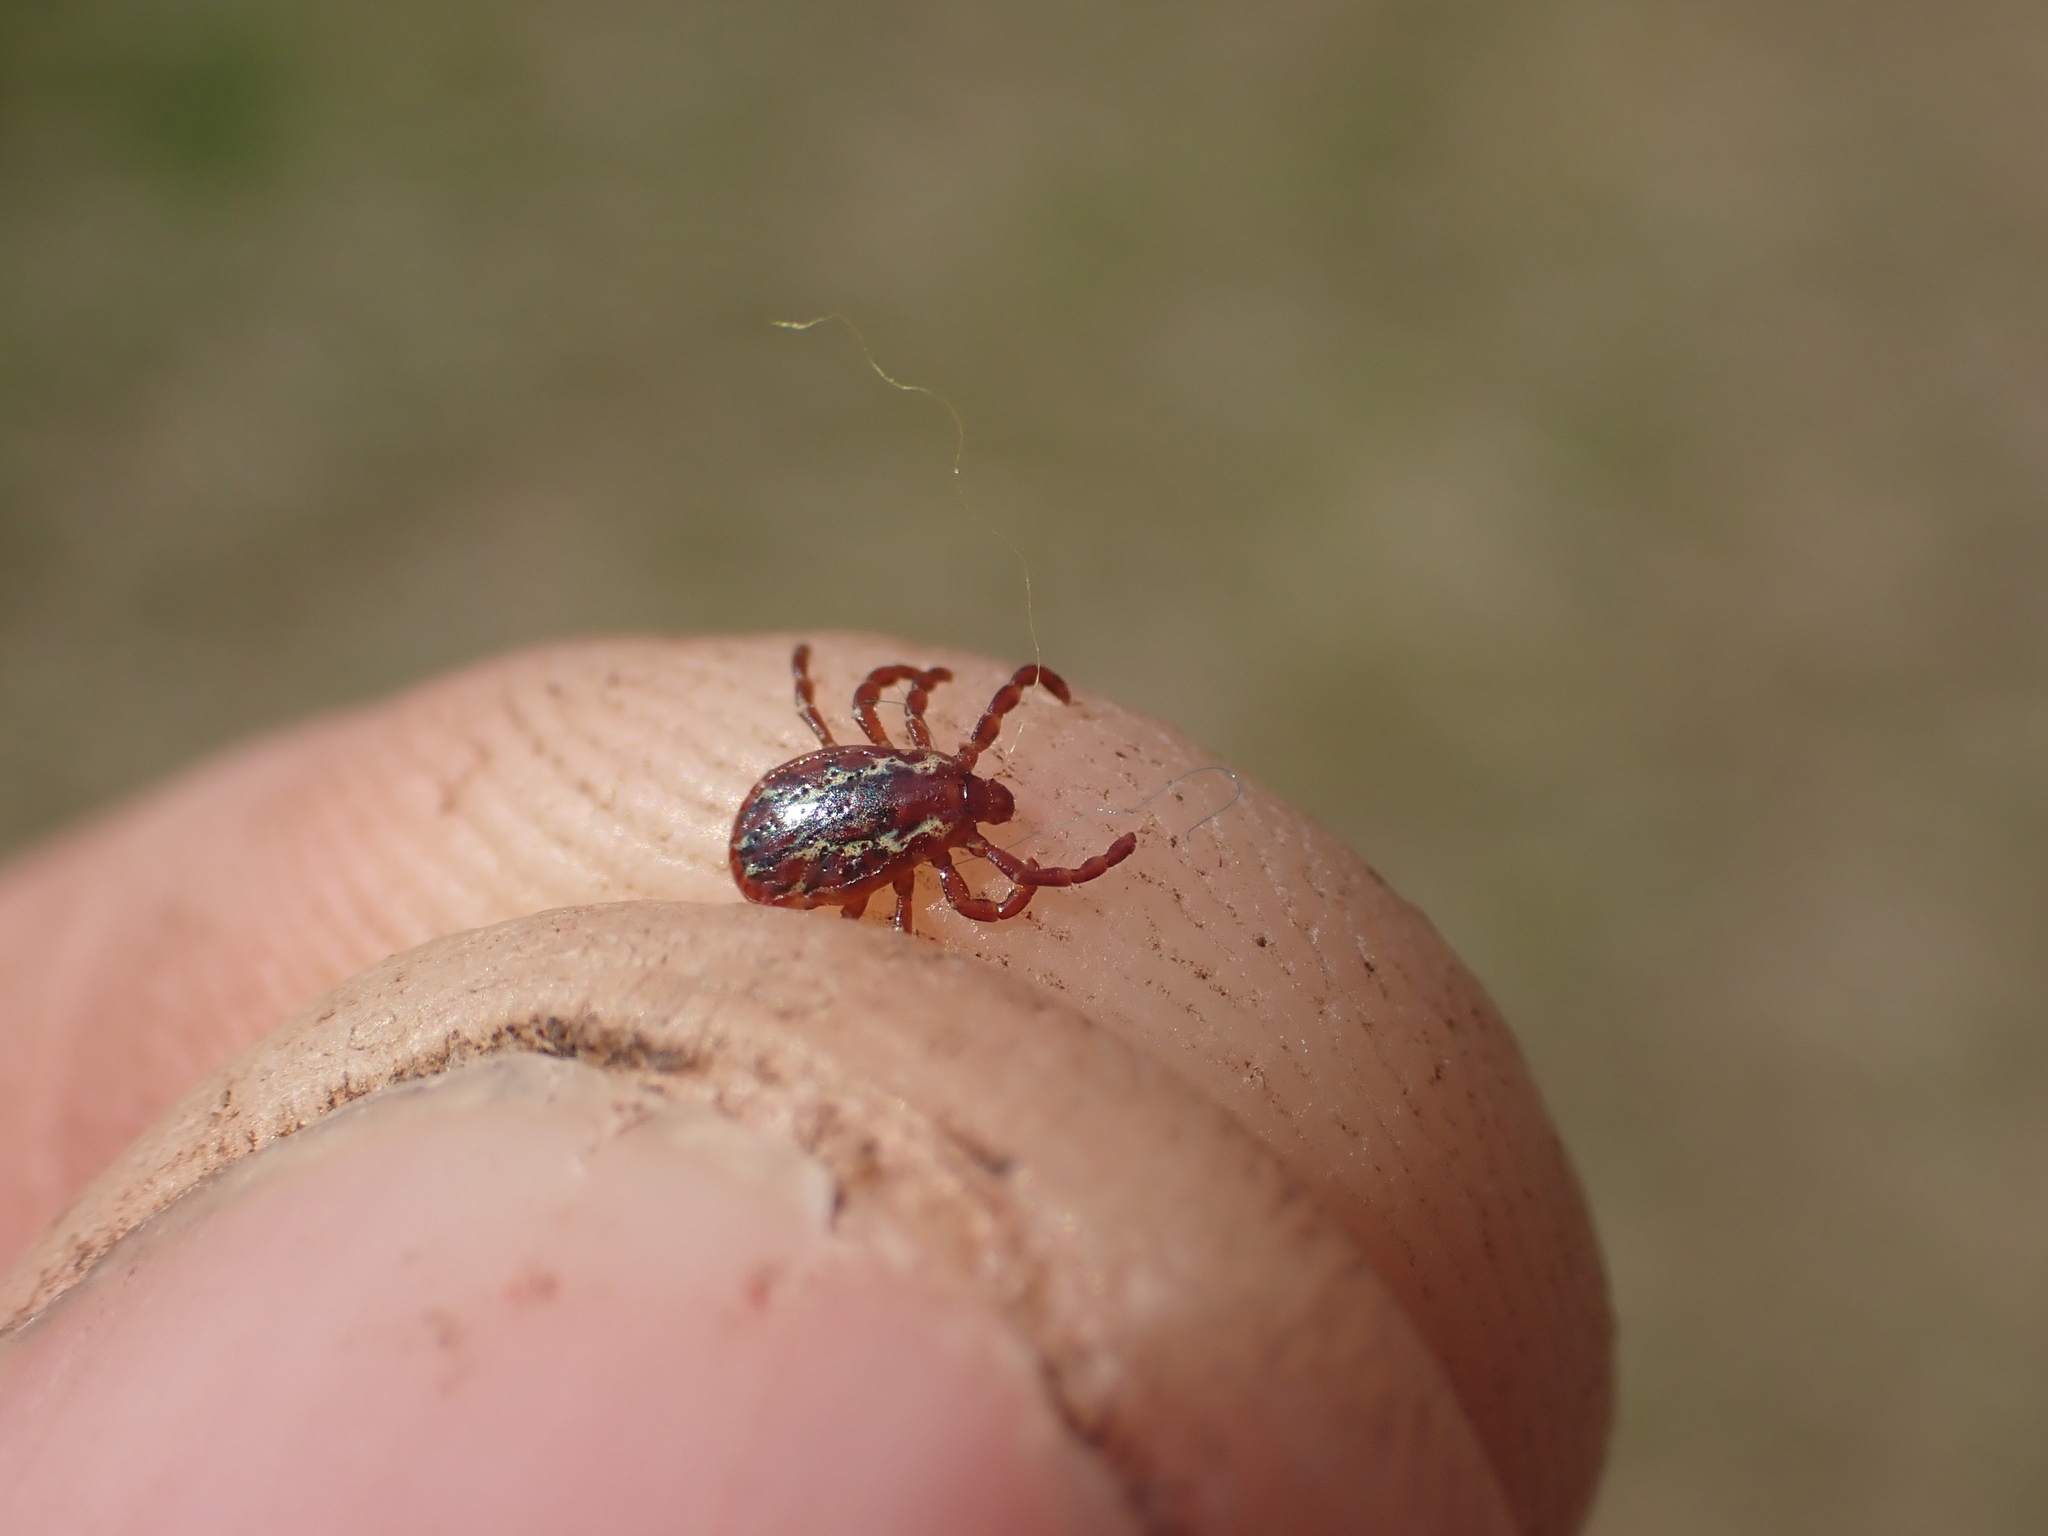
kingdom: Animalia
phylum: Arthropoda
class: Arachnida
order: Ixodida
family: Ixodidae
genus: Dermacentor
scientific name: Dermacentor variabilis
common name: American dog tick
